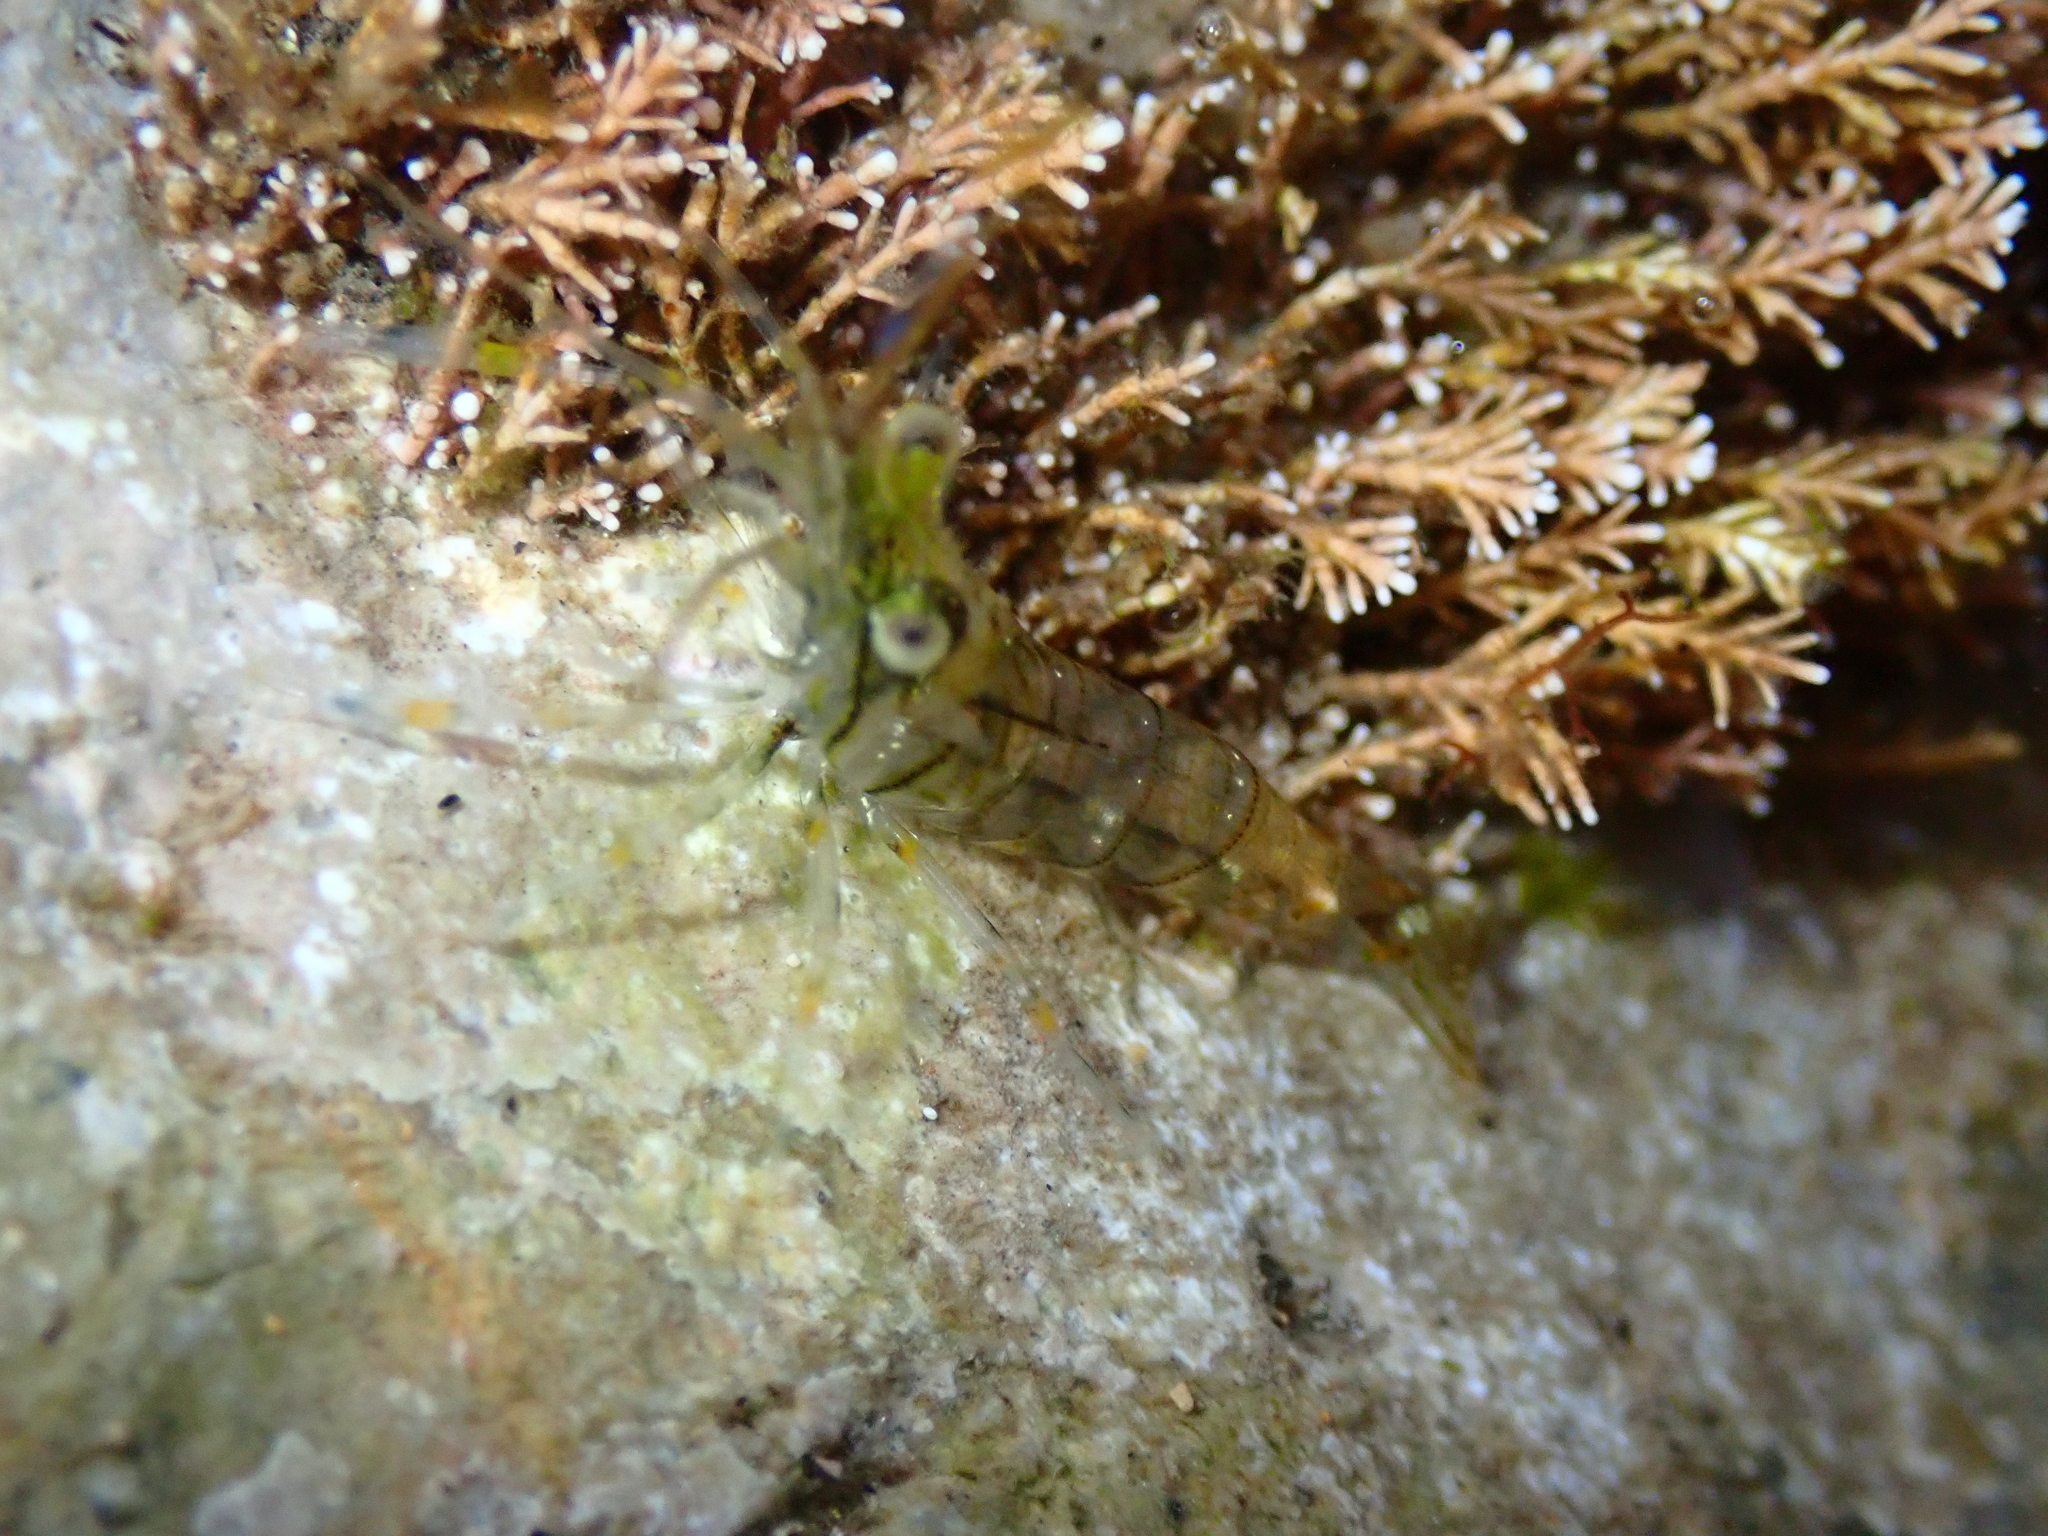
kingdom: Animalia
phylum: Arthropoda
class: Malacostraca
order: Decapoda
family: Palaemonidae
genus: Palaemon
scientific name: Palaemon elegans
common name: Grass prawm
